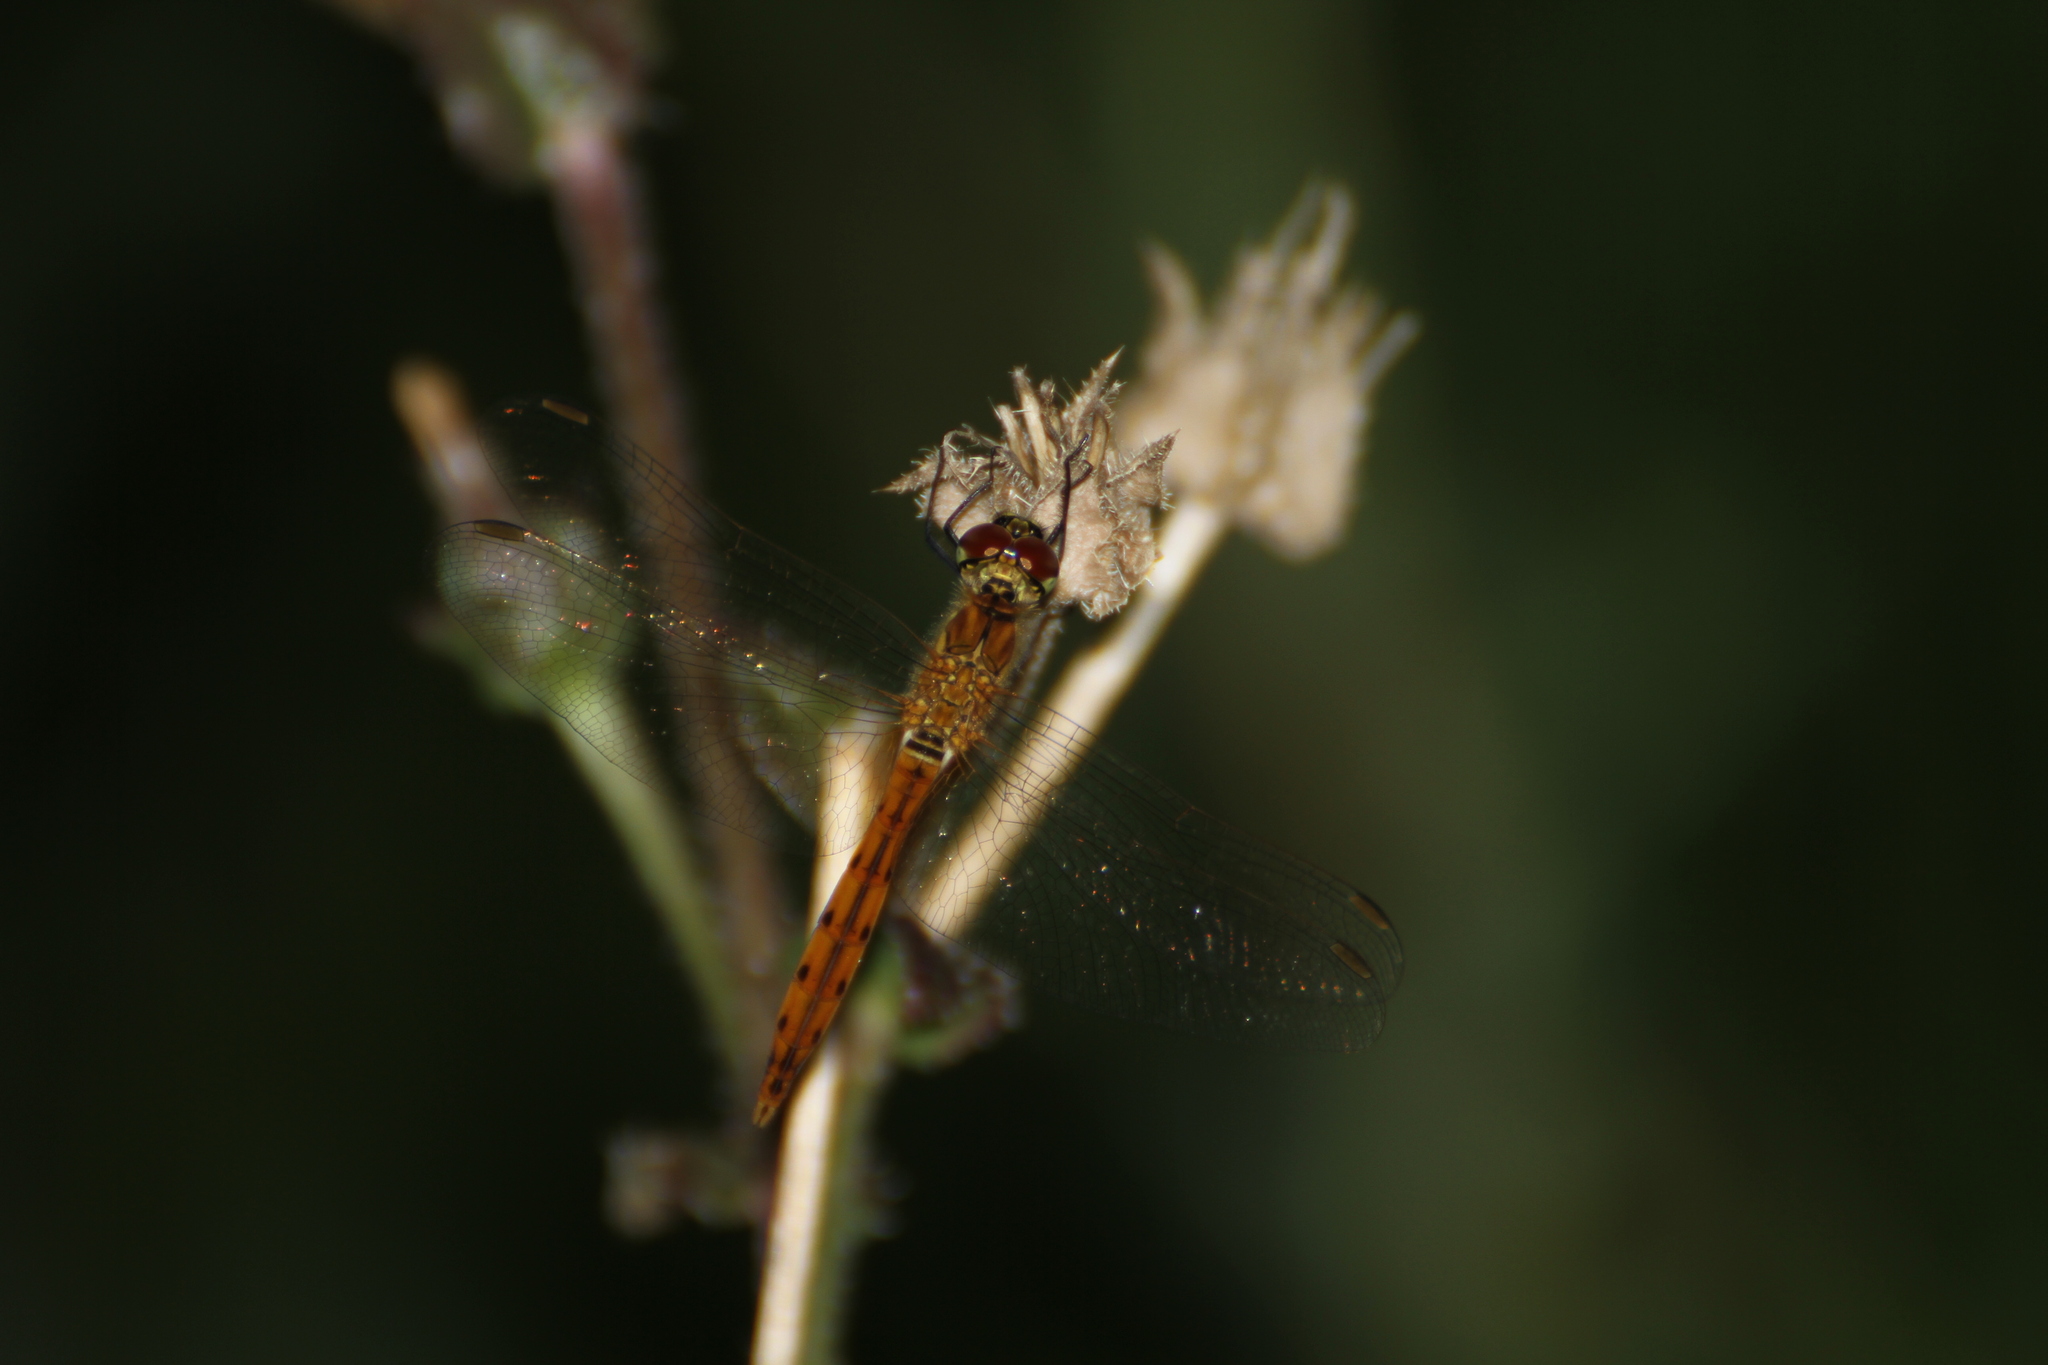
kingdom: Animalia
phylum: Arthropoda
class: Insecta
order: Odonata
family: Libellulidae
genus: Sympetrum
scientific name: Sympetrum depressiusculum
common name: Spotted darter
